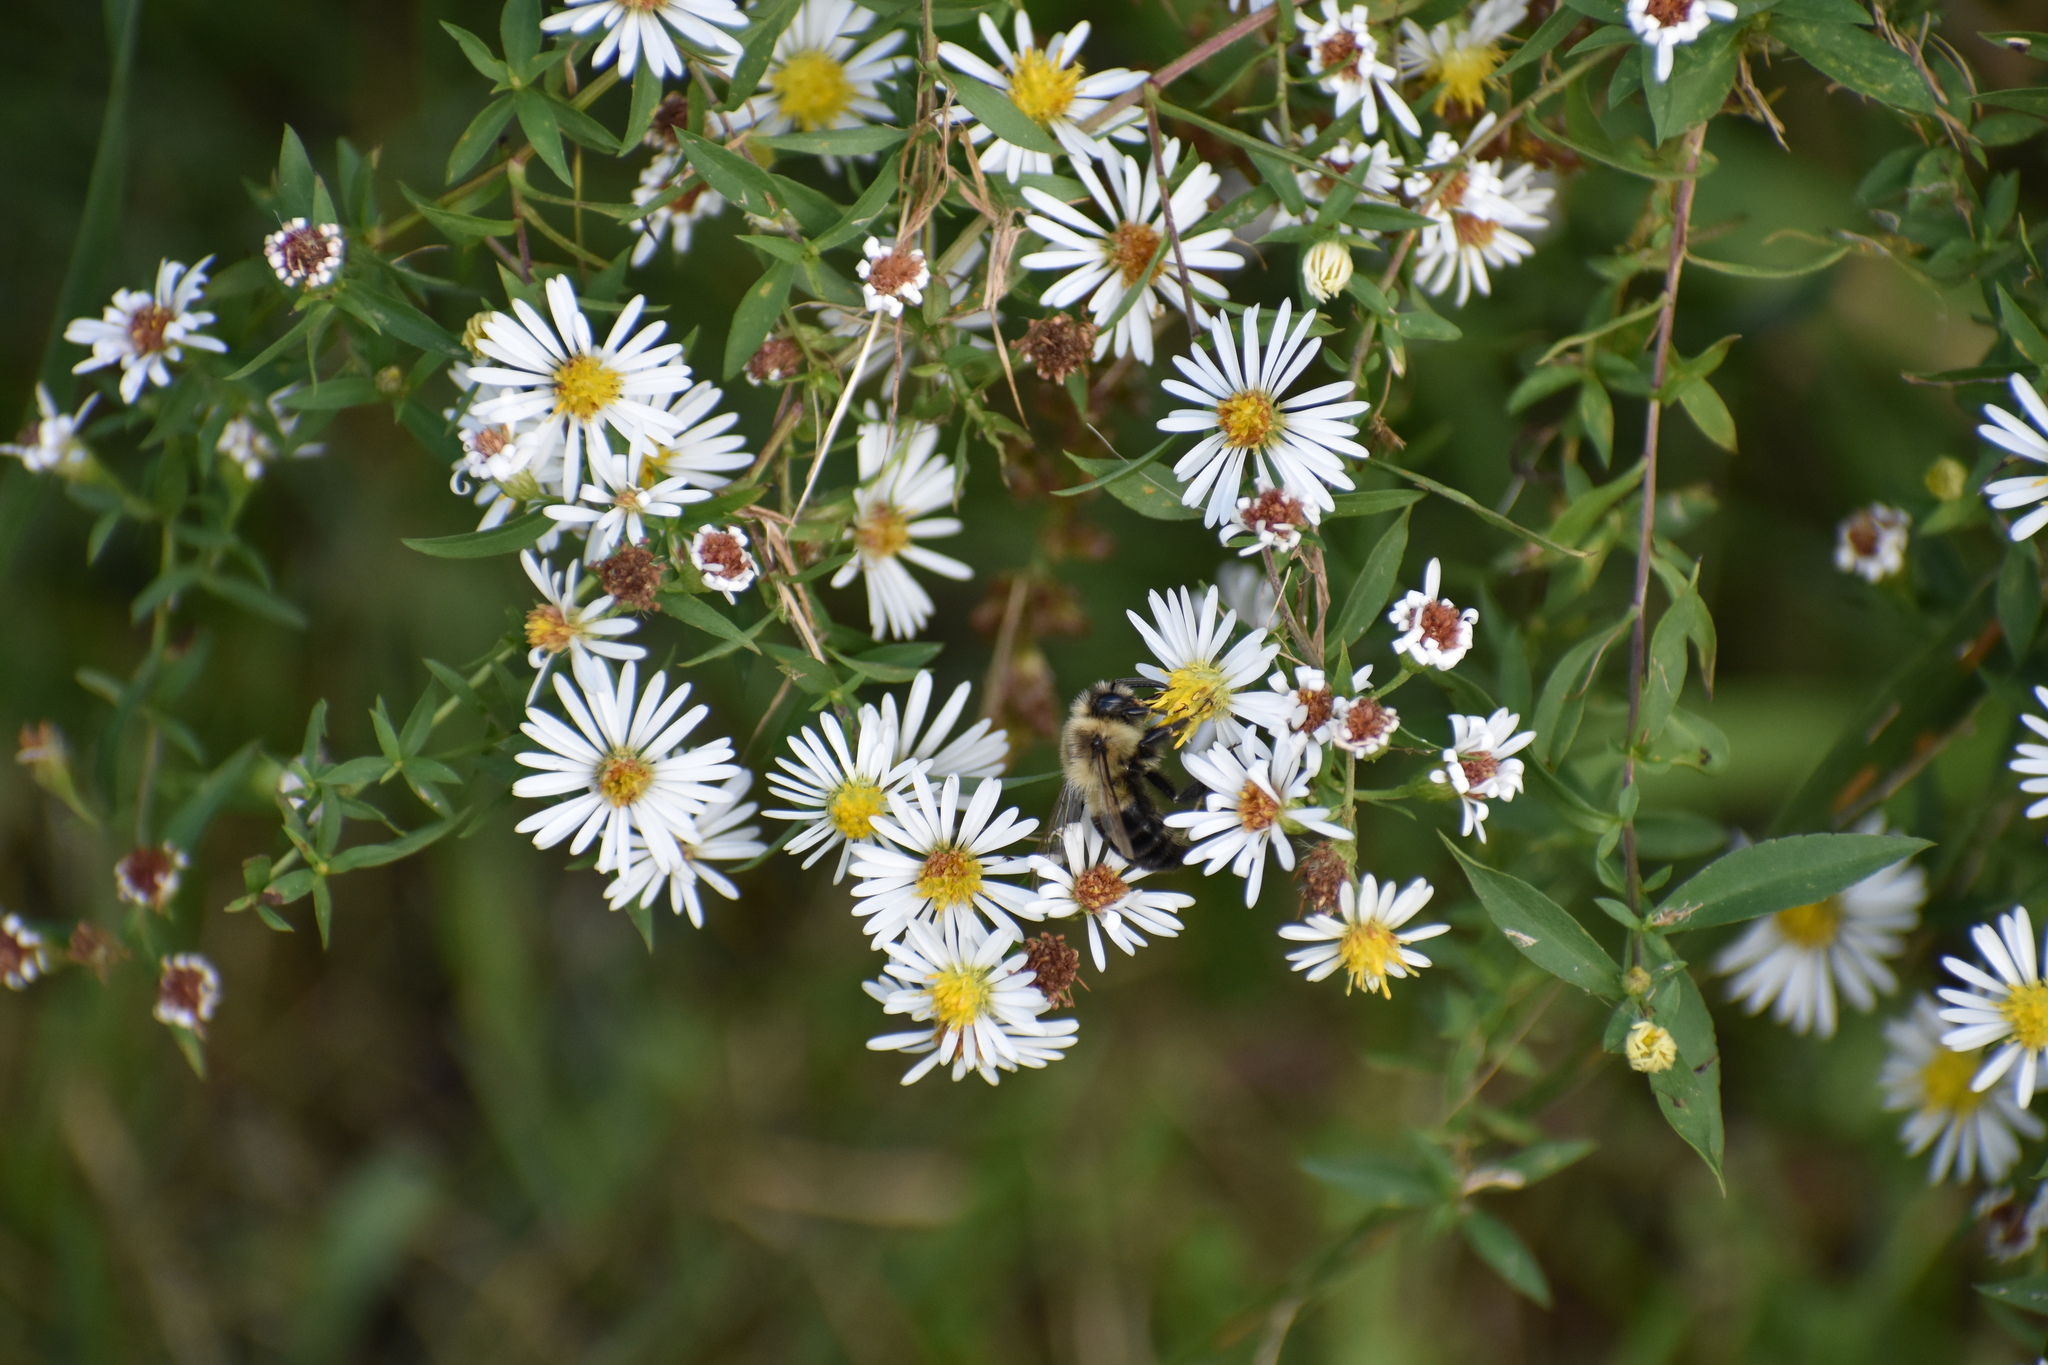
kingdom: Animalia
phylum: Arthropoda
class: Insecta
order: Hymenoptera
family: Apidae
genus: Bombus
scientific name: Bombus impatiens
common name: Common eastern bumble bee
